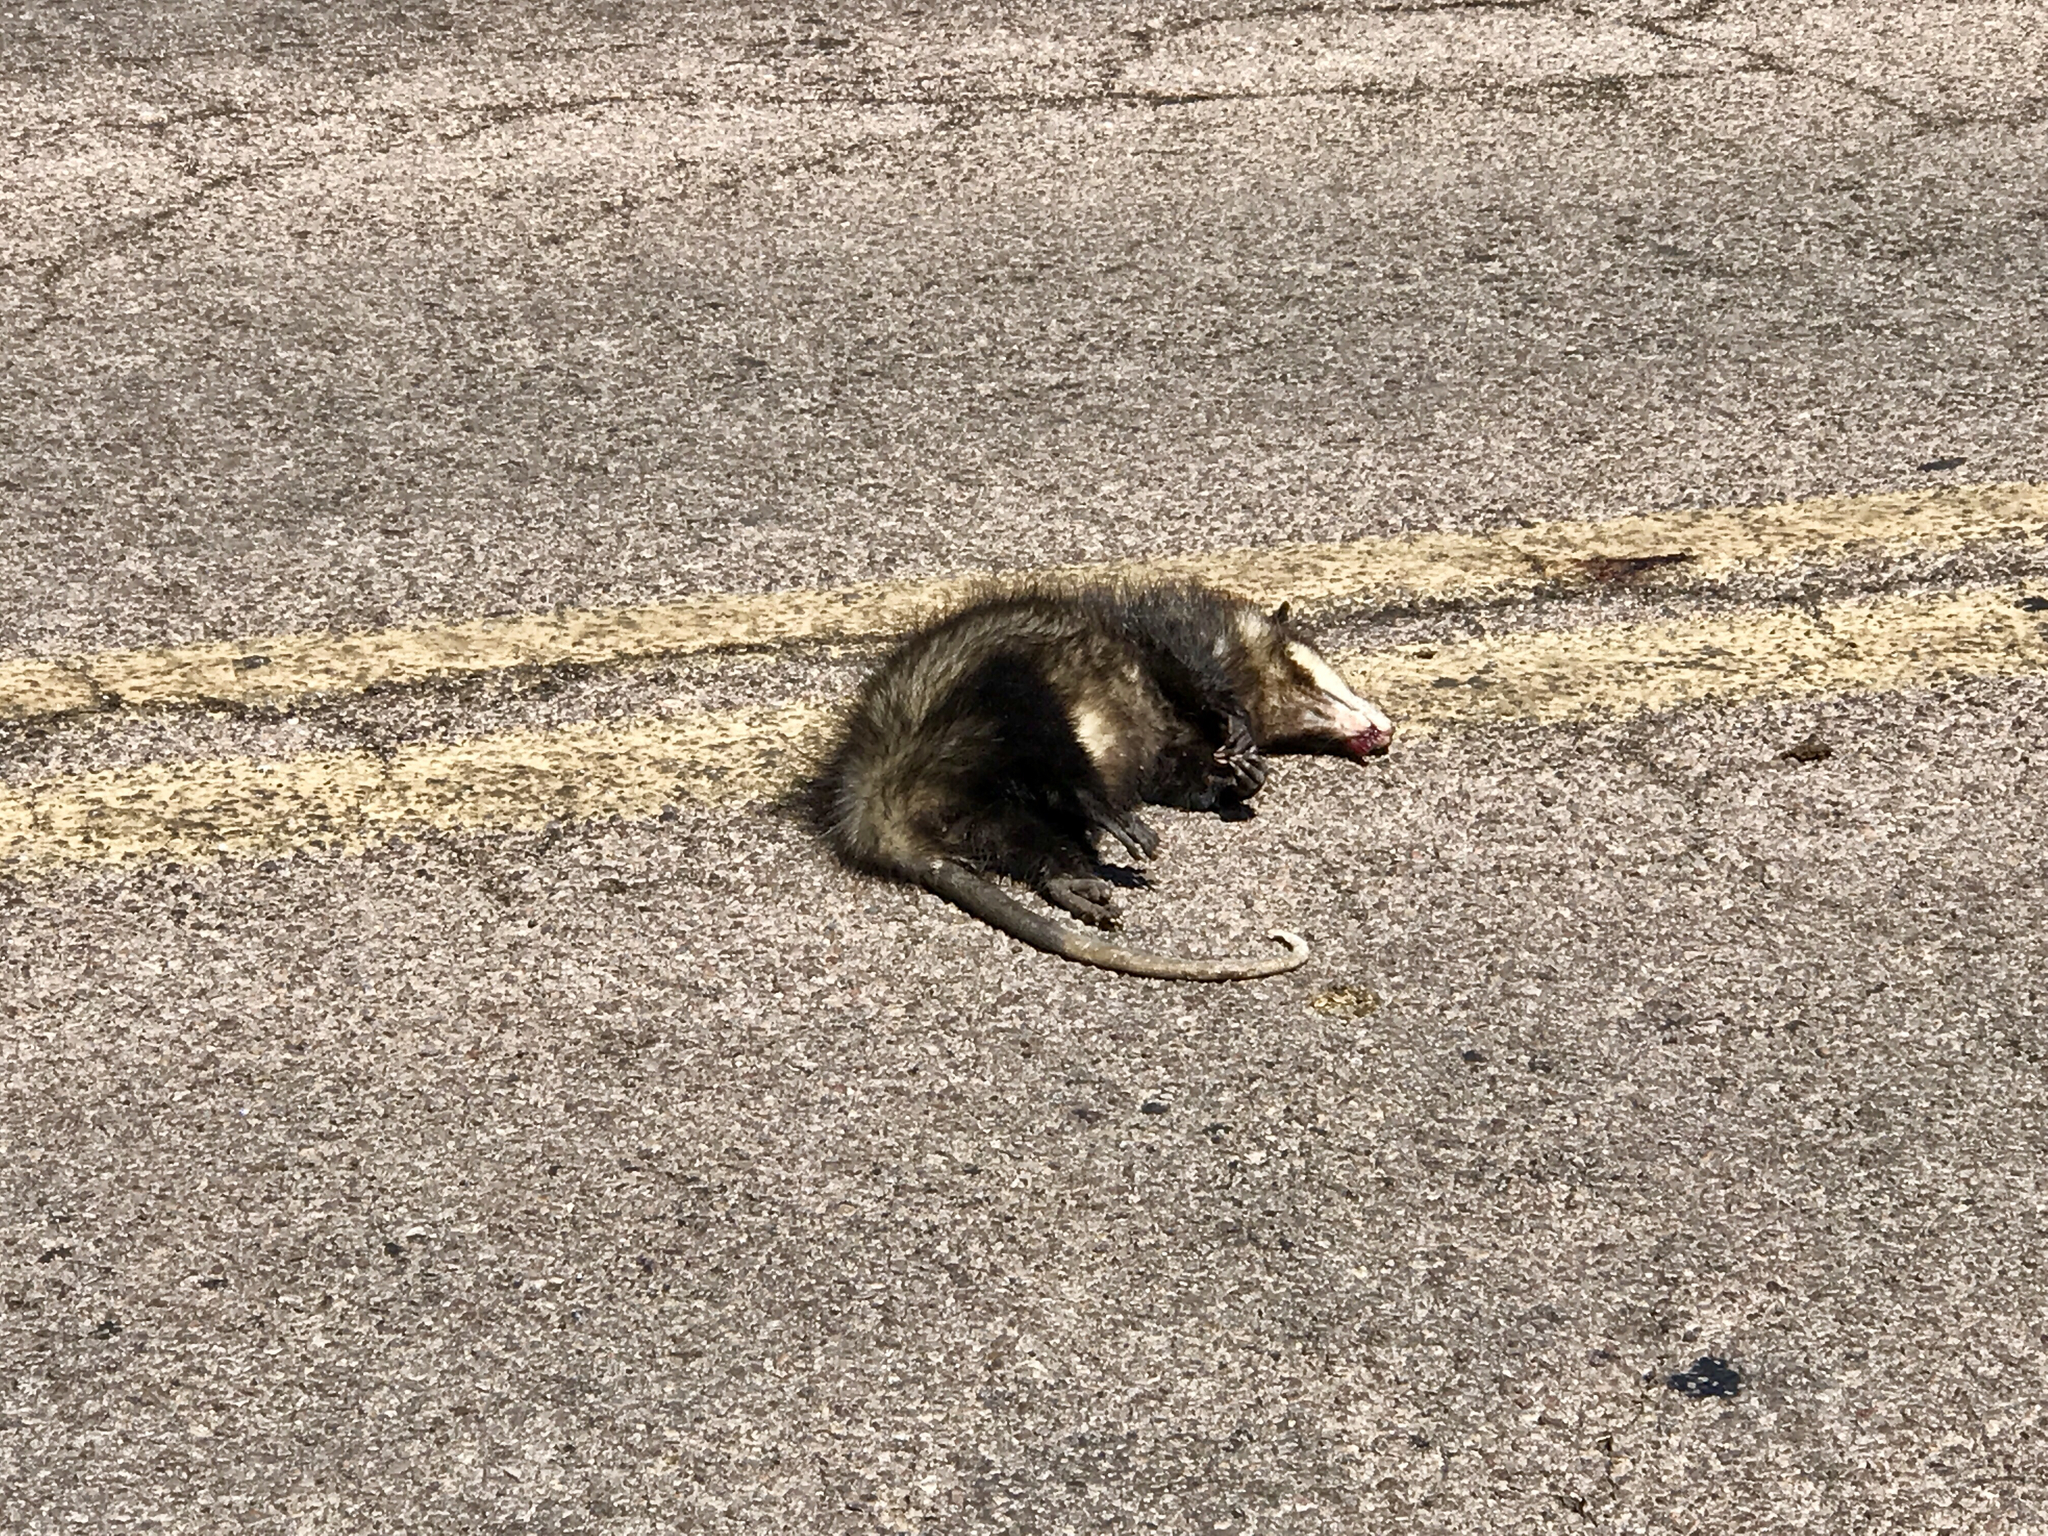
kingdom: Animalia
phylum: Chordata
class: Mammalia
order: Didelphimorphia
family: Didelphidae
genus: Didelphis
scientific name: Didelphis virginiana
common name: Virginia opossum
